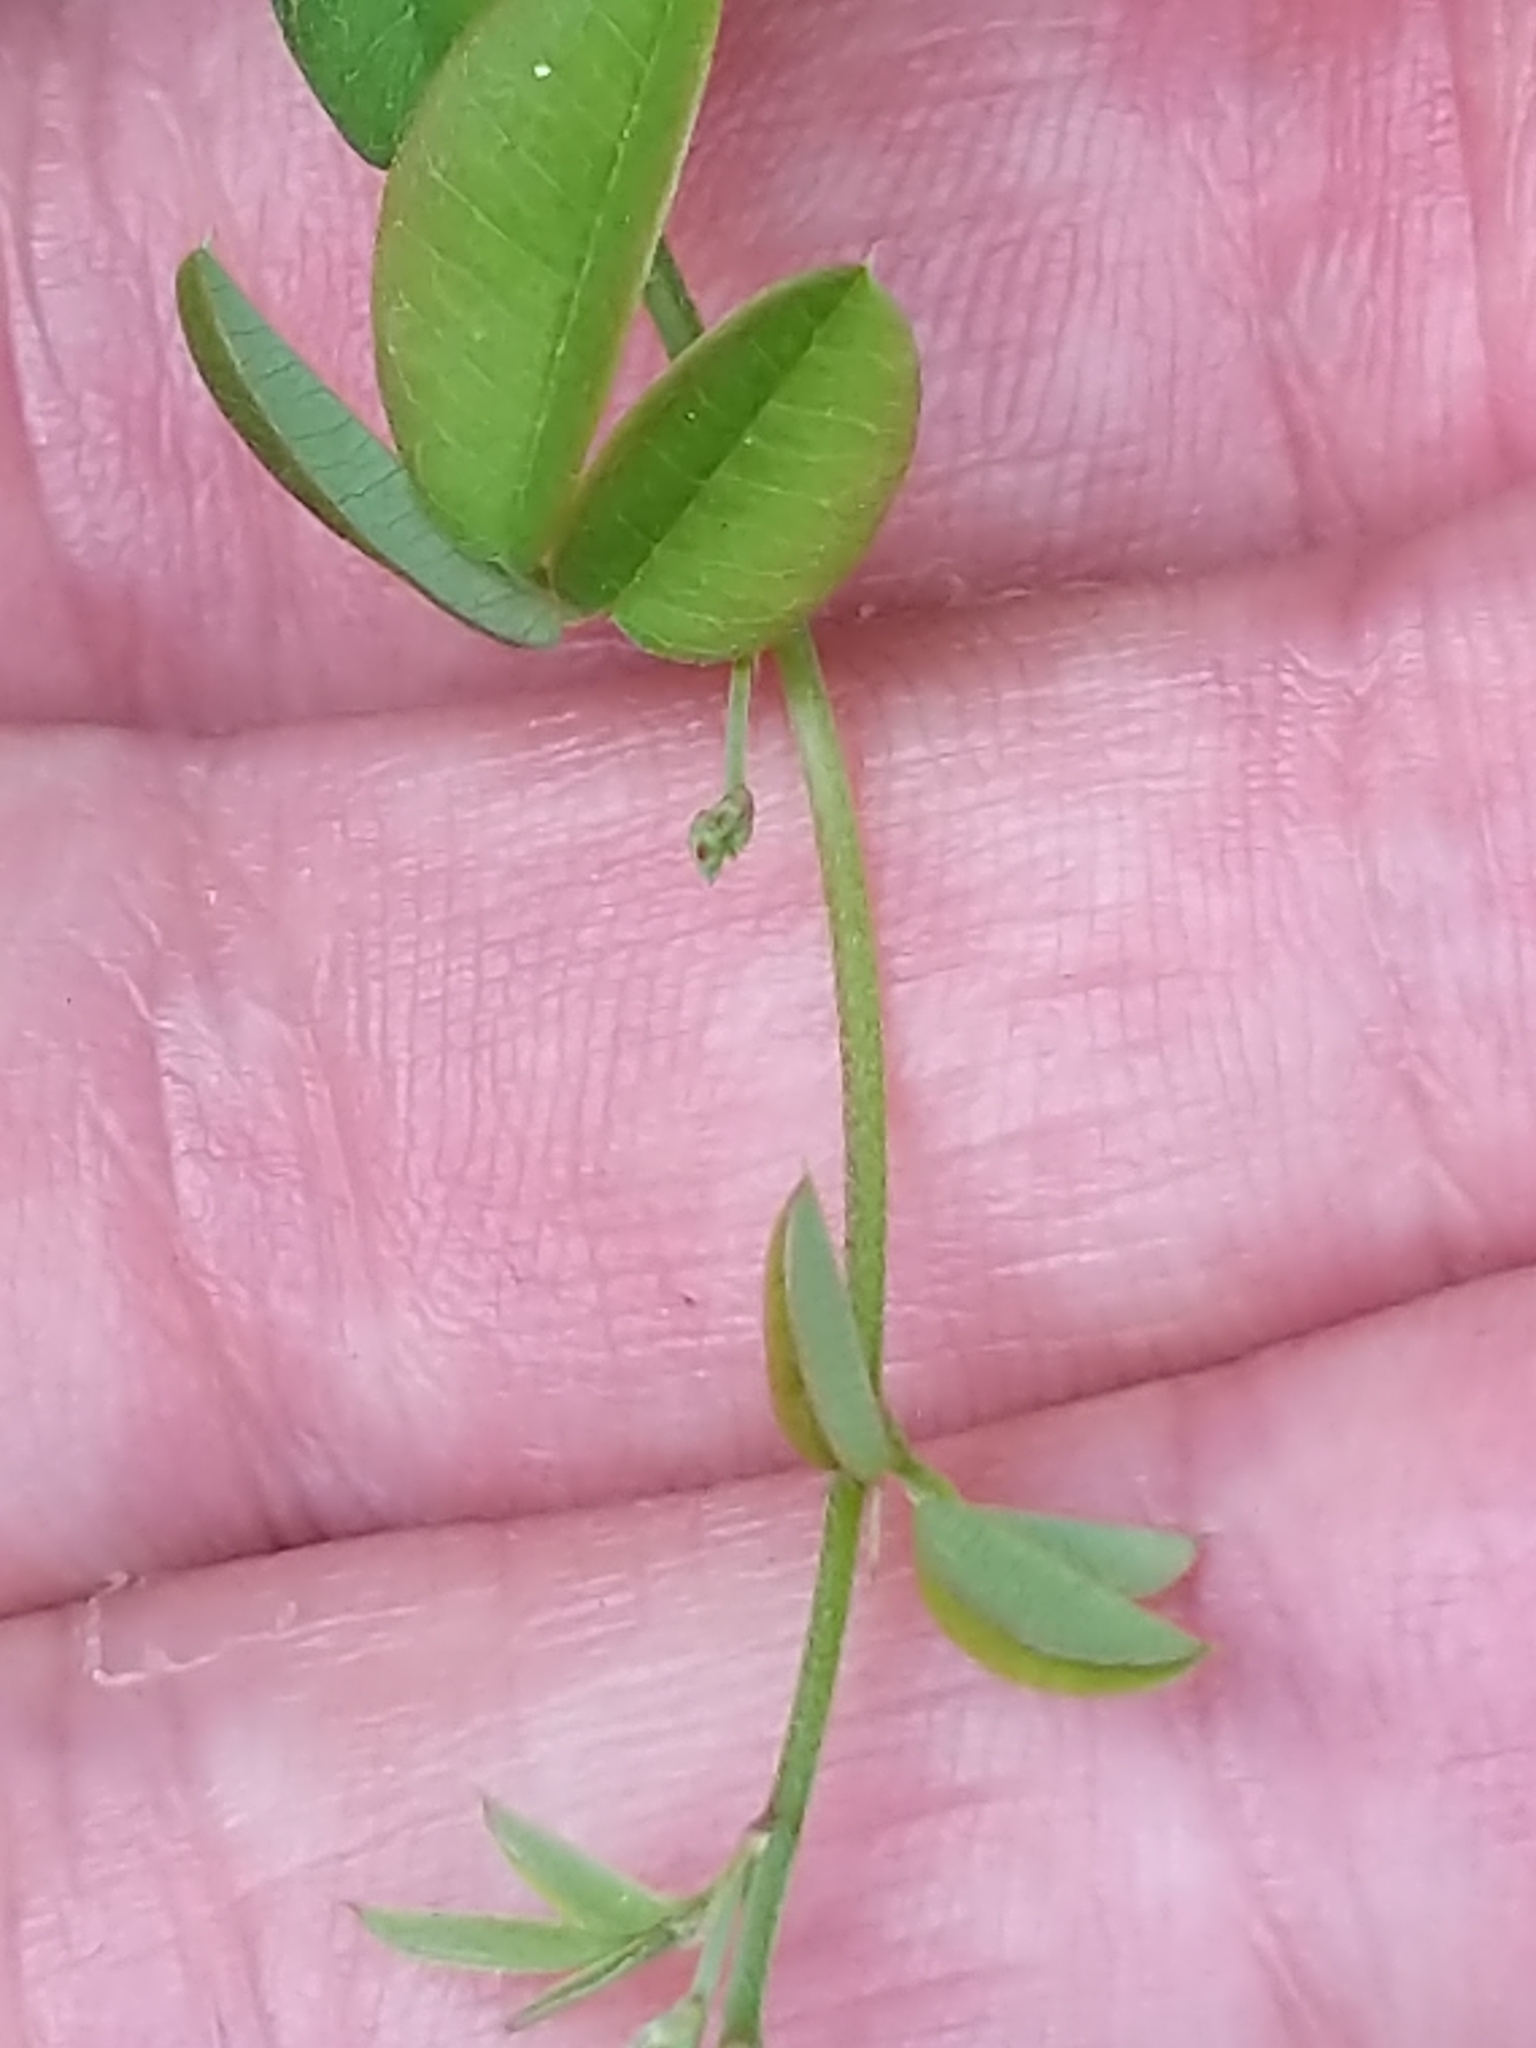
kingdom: Plantae
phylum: Tracheophyta
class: Magnoliopsida
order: Fabales
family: Fabaceae
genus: Lespedeza
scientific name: Lespedeza repens
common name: Creeping bush-clover
